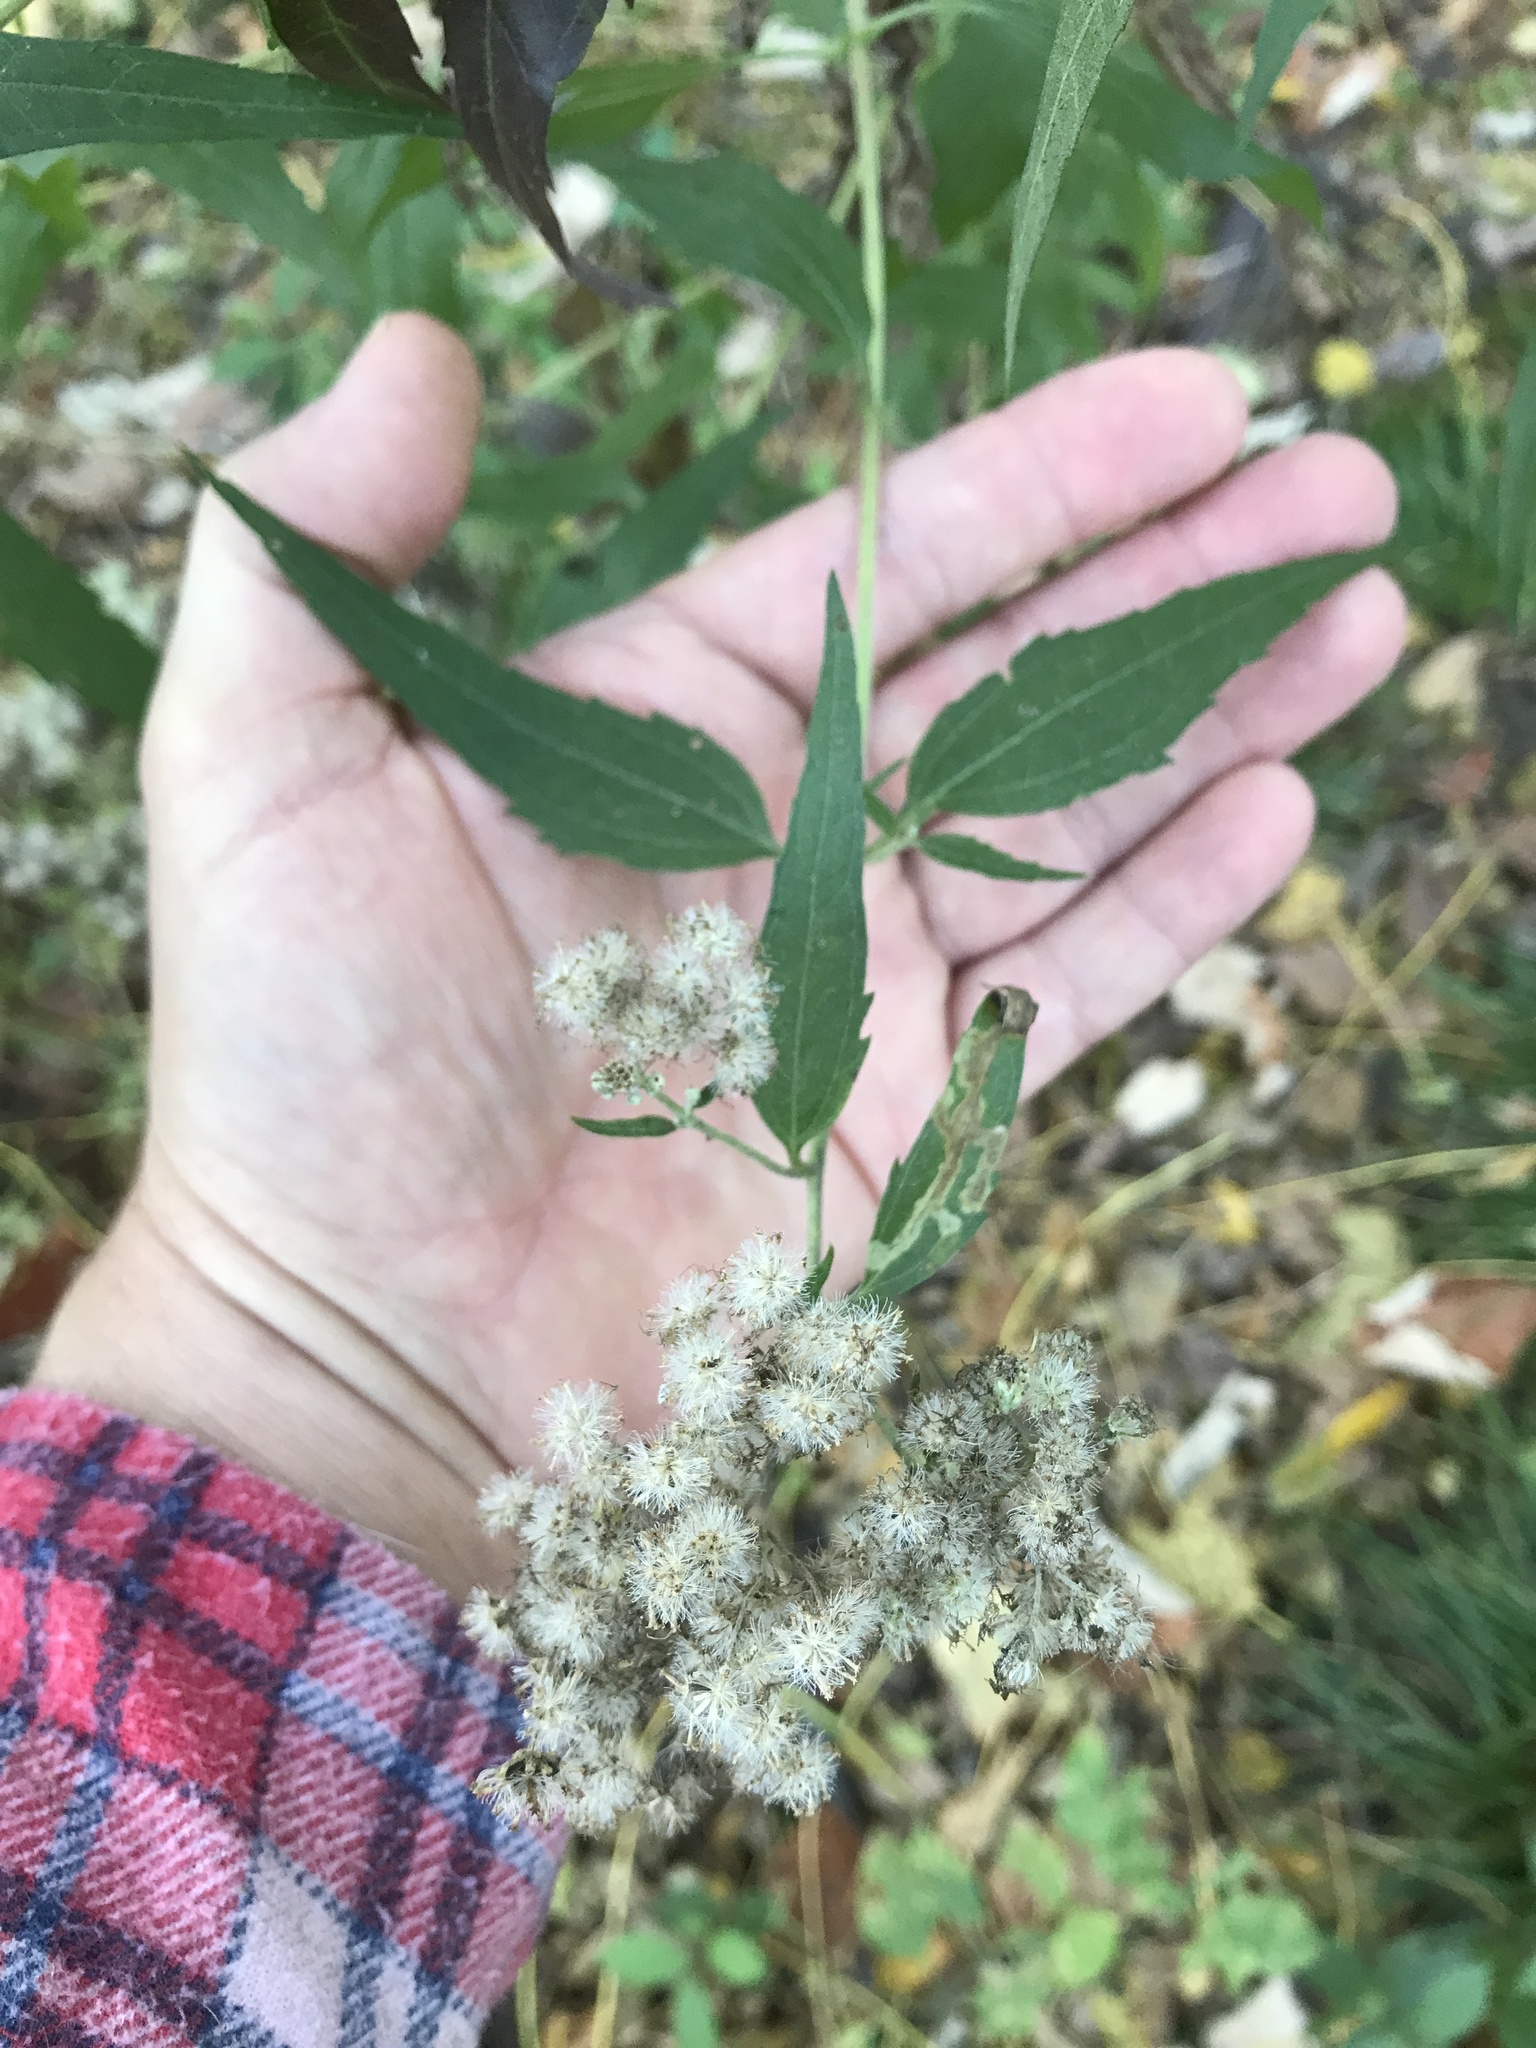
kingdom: Plantae
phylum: Tracheophyta
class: Magnoliopsida
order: Asterales
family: Asteraceae
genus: Eupatorium
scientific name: Eupatorium serotinum
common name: Late boneset
